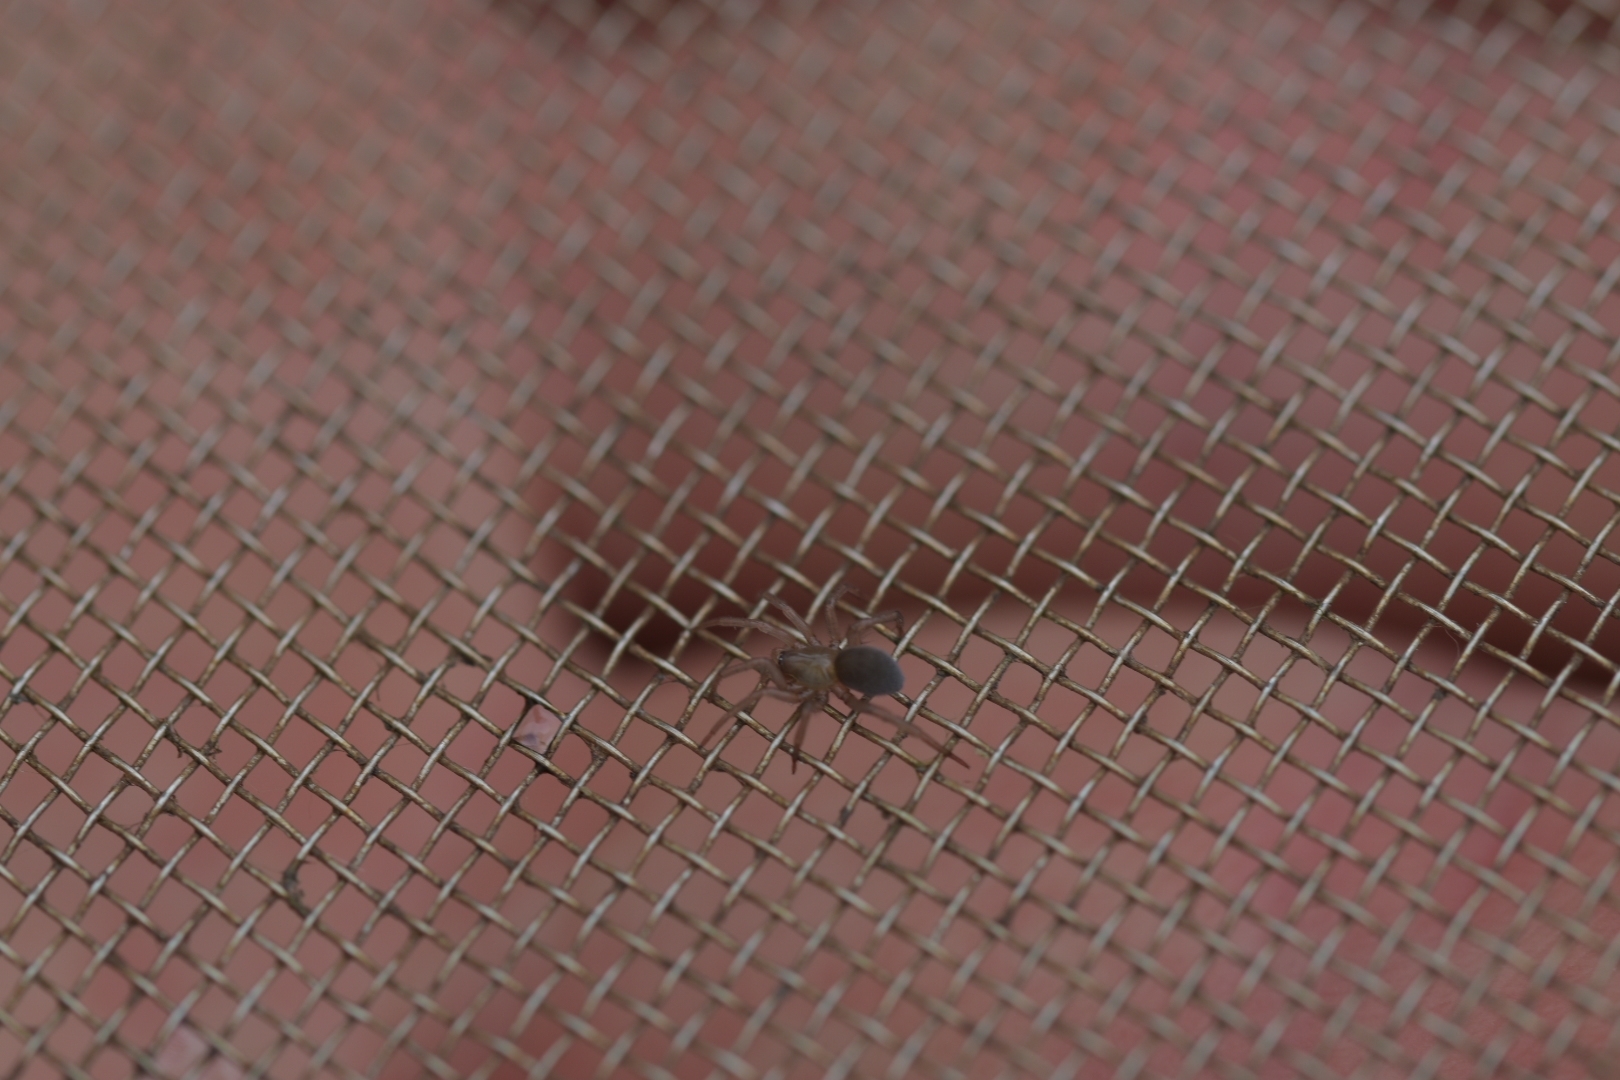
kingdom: Animalia
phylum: Arthropoda
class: Arachnida
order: Araneae
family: Dictynidae
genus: Argyroneta
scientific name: Argyroneta aquatica
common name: Water spider
